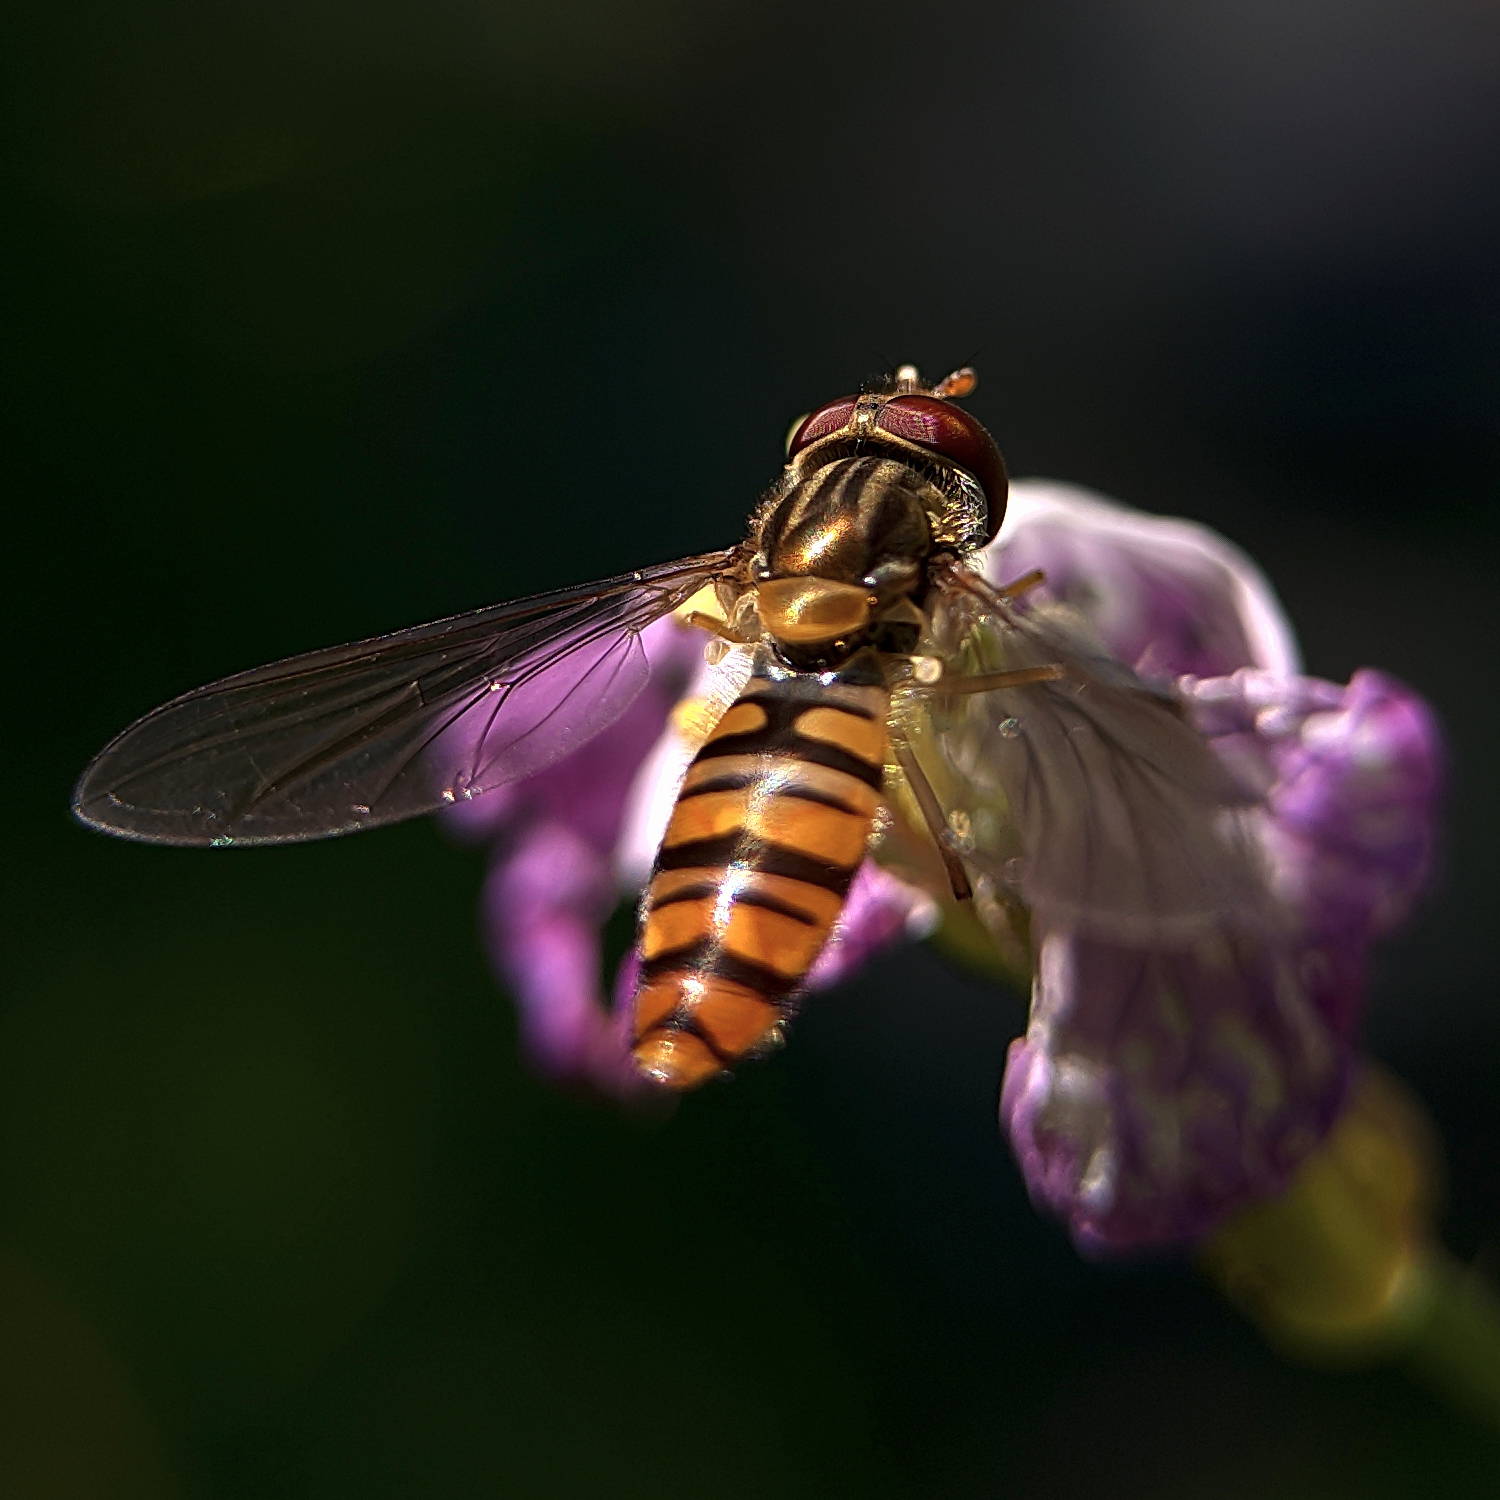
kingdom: Animalia
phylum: Arthropoda
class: Insecta
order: Diptera
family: Syrphidae
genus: Episyrphus
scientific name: Episyrphus balteatus
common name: Marmalade hoverfly
